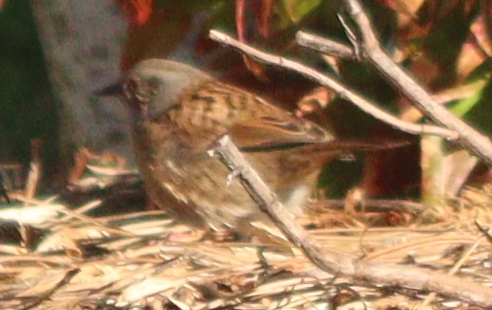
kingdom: Animalia
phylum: Chordata
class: Aves
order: Passeriformes
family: Prunellidae
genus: Prunella
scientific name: Prunella modularis
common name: Dunnock
